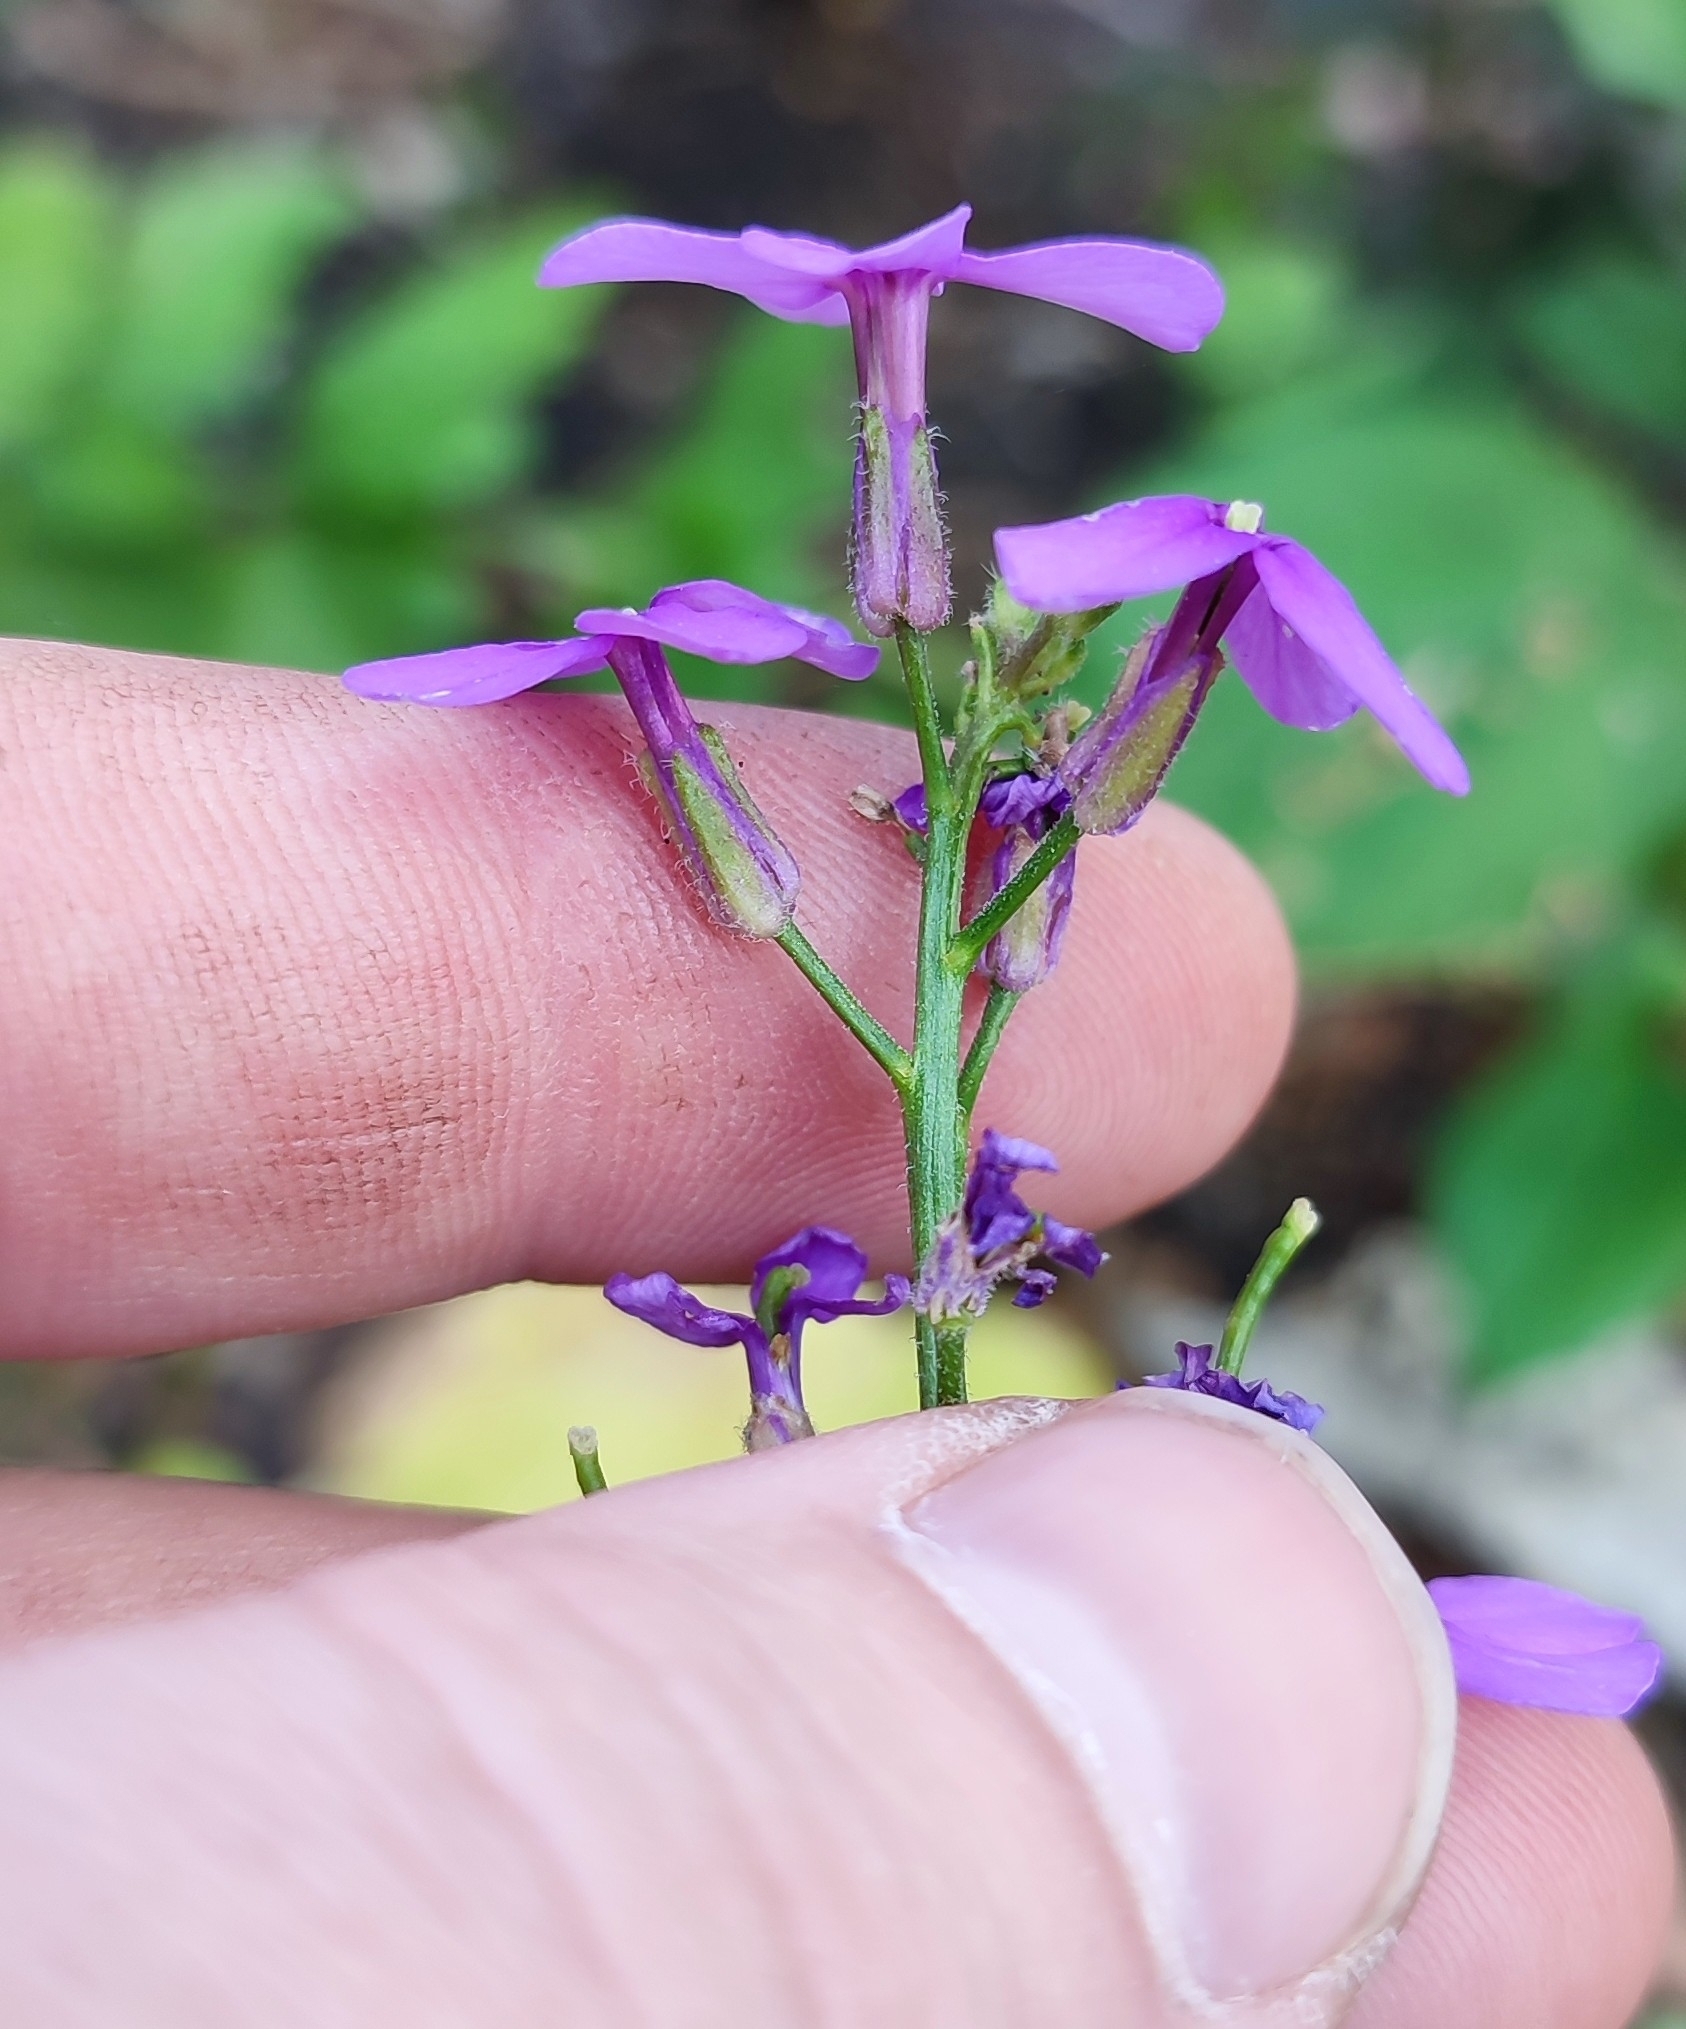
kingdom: Plantae
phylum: Tracheophyta
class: Magnoliopsida
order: Brassicales
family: Brassicaceae
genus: Hesperis
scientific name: Hesperis matronalis
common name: Dame's-violet
